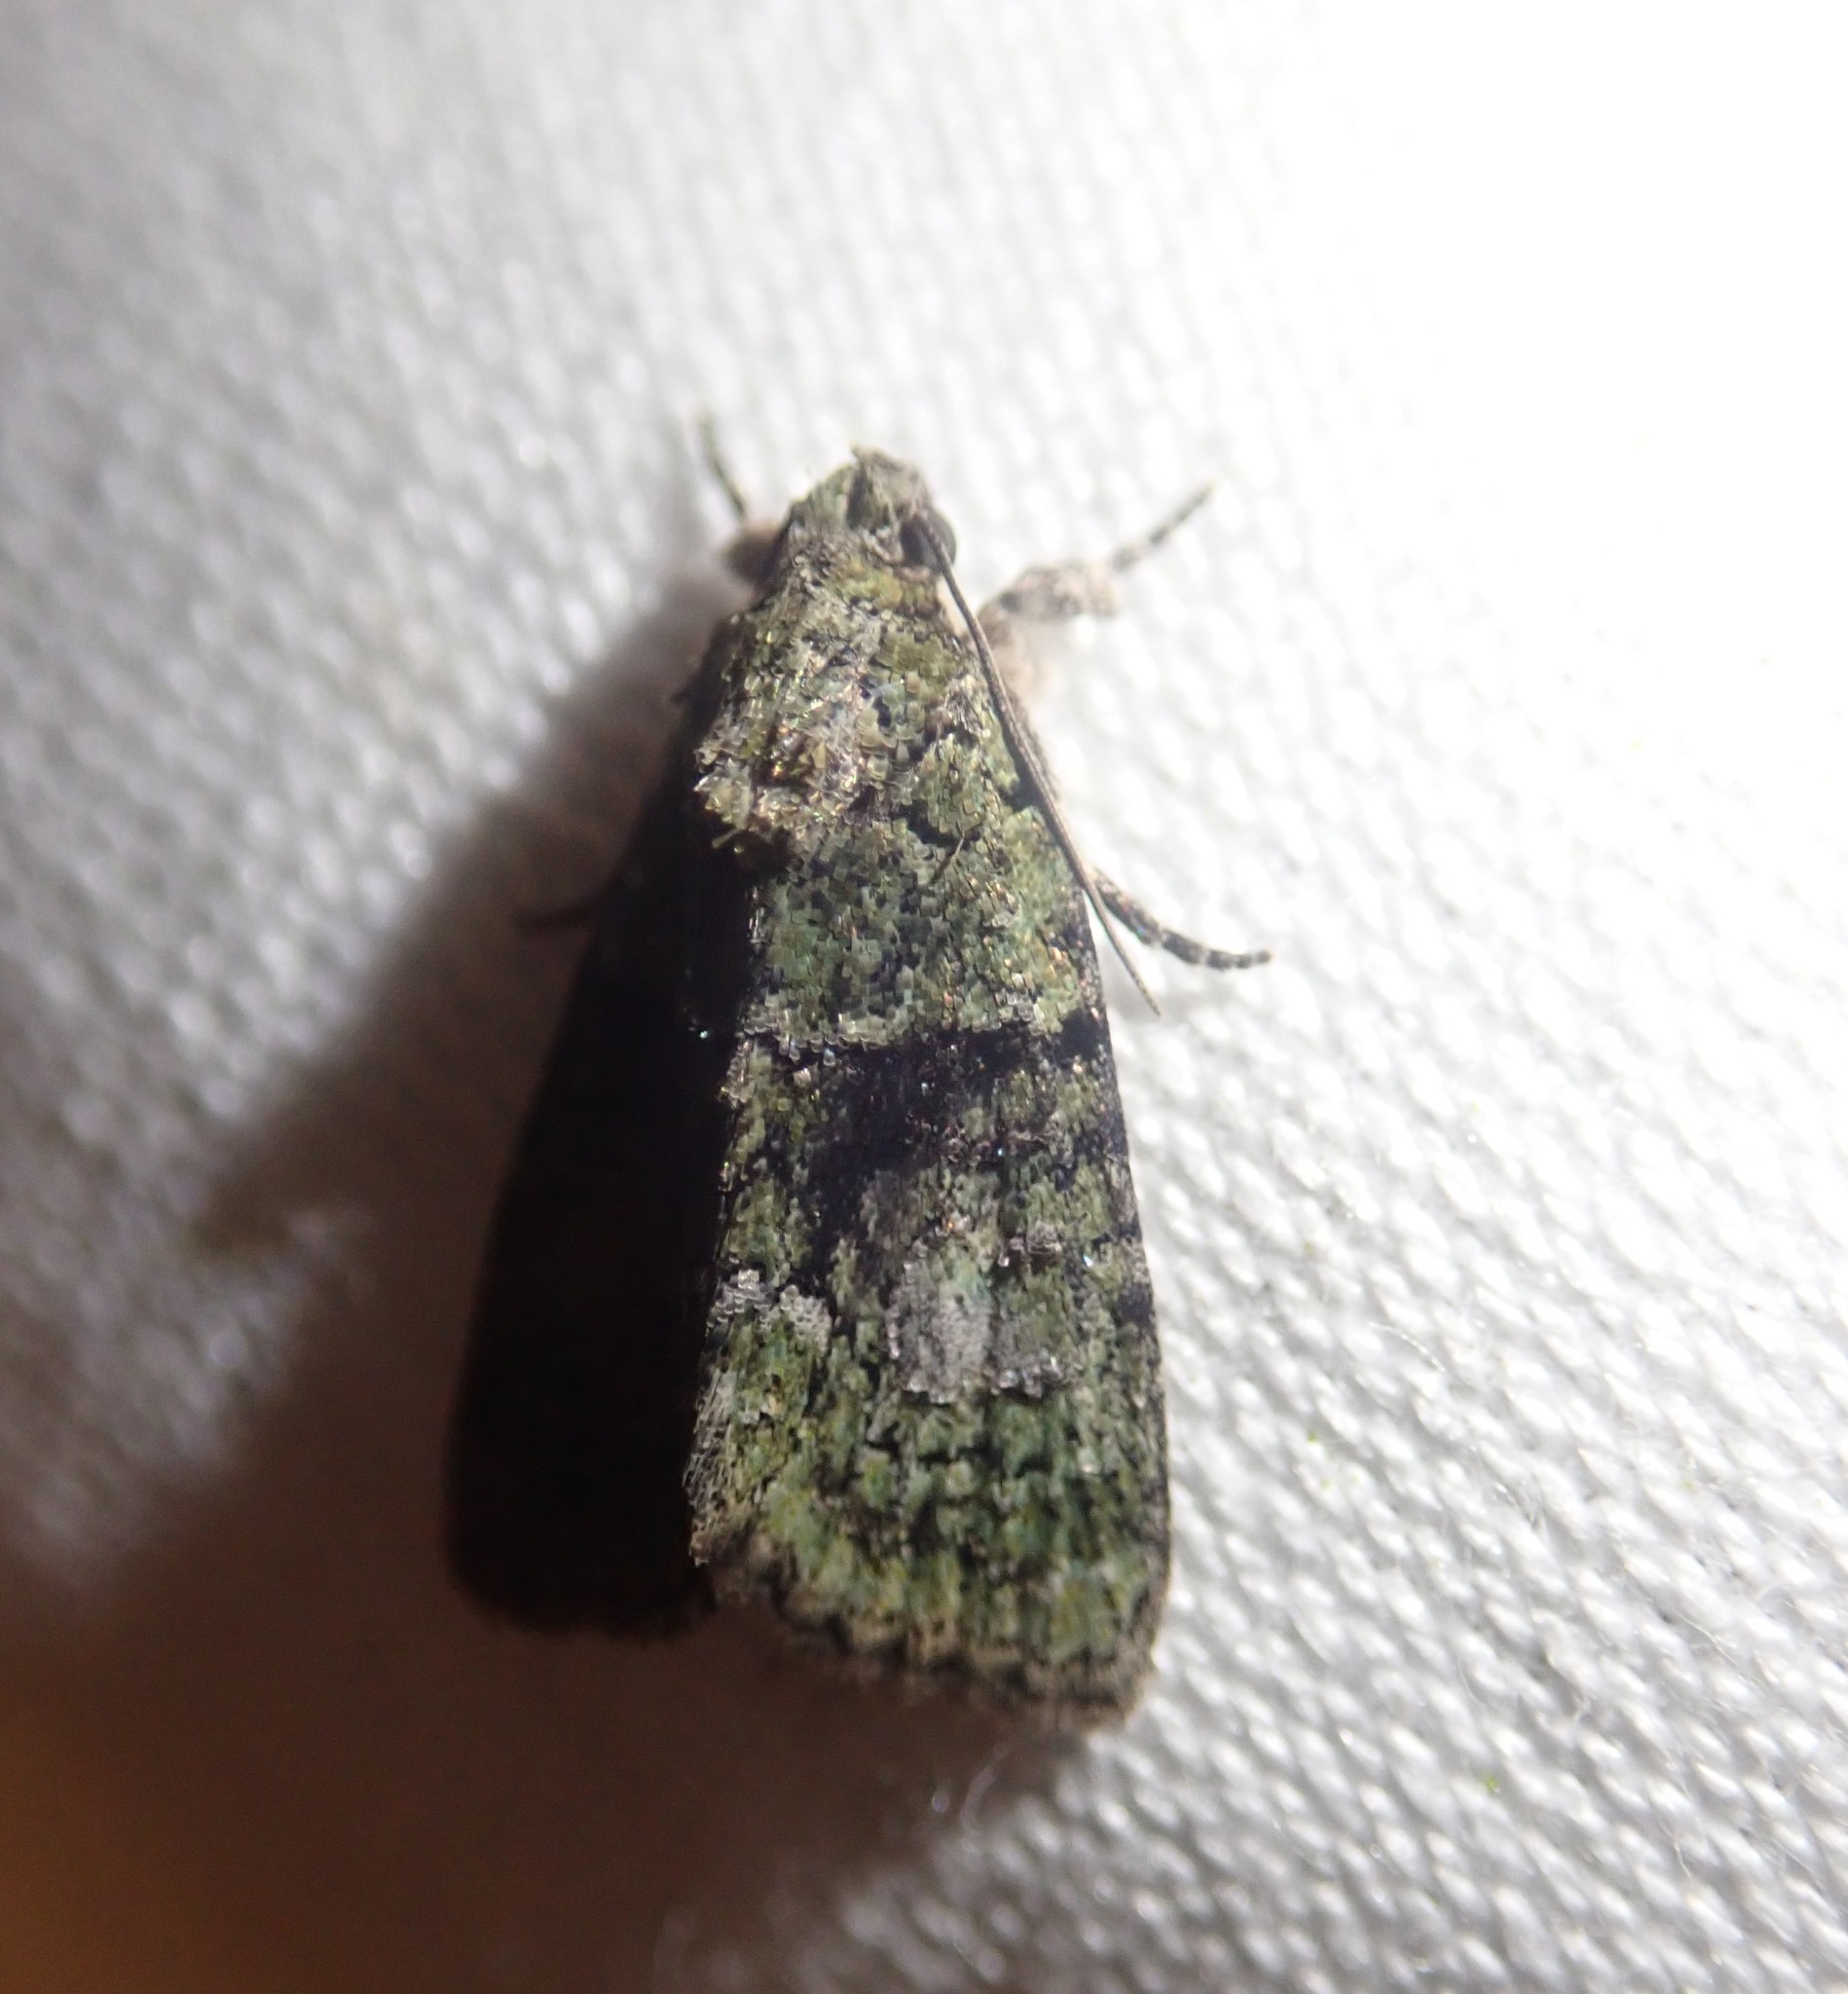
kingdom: Animalia
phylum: Arthropoda
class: Insecta
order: Lepidoptera
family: Noctuidae
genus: Cryphia
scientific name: Cryphia algae
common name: Tree-lichen beauty
